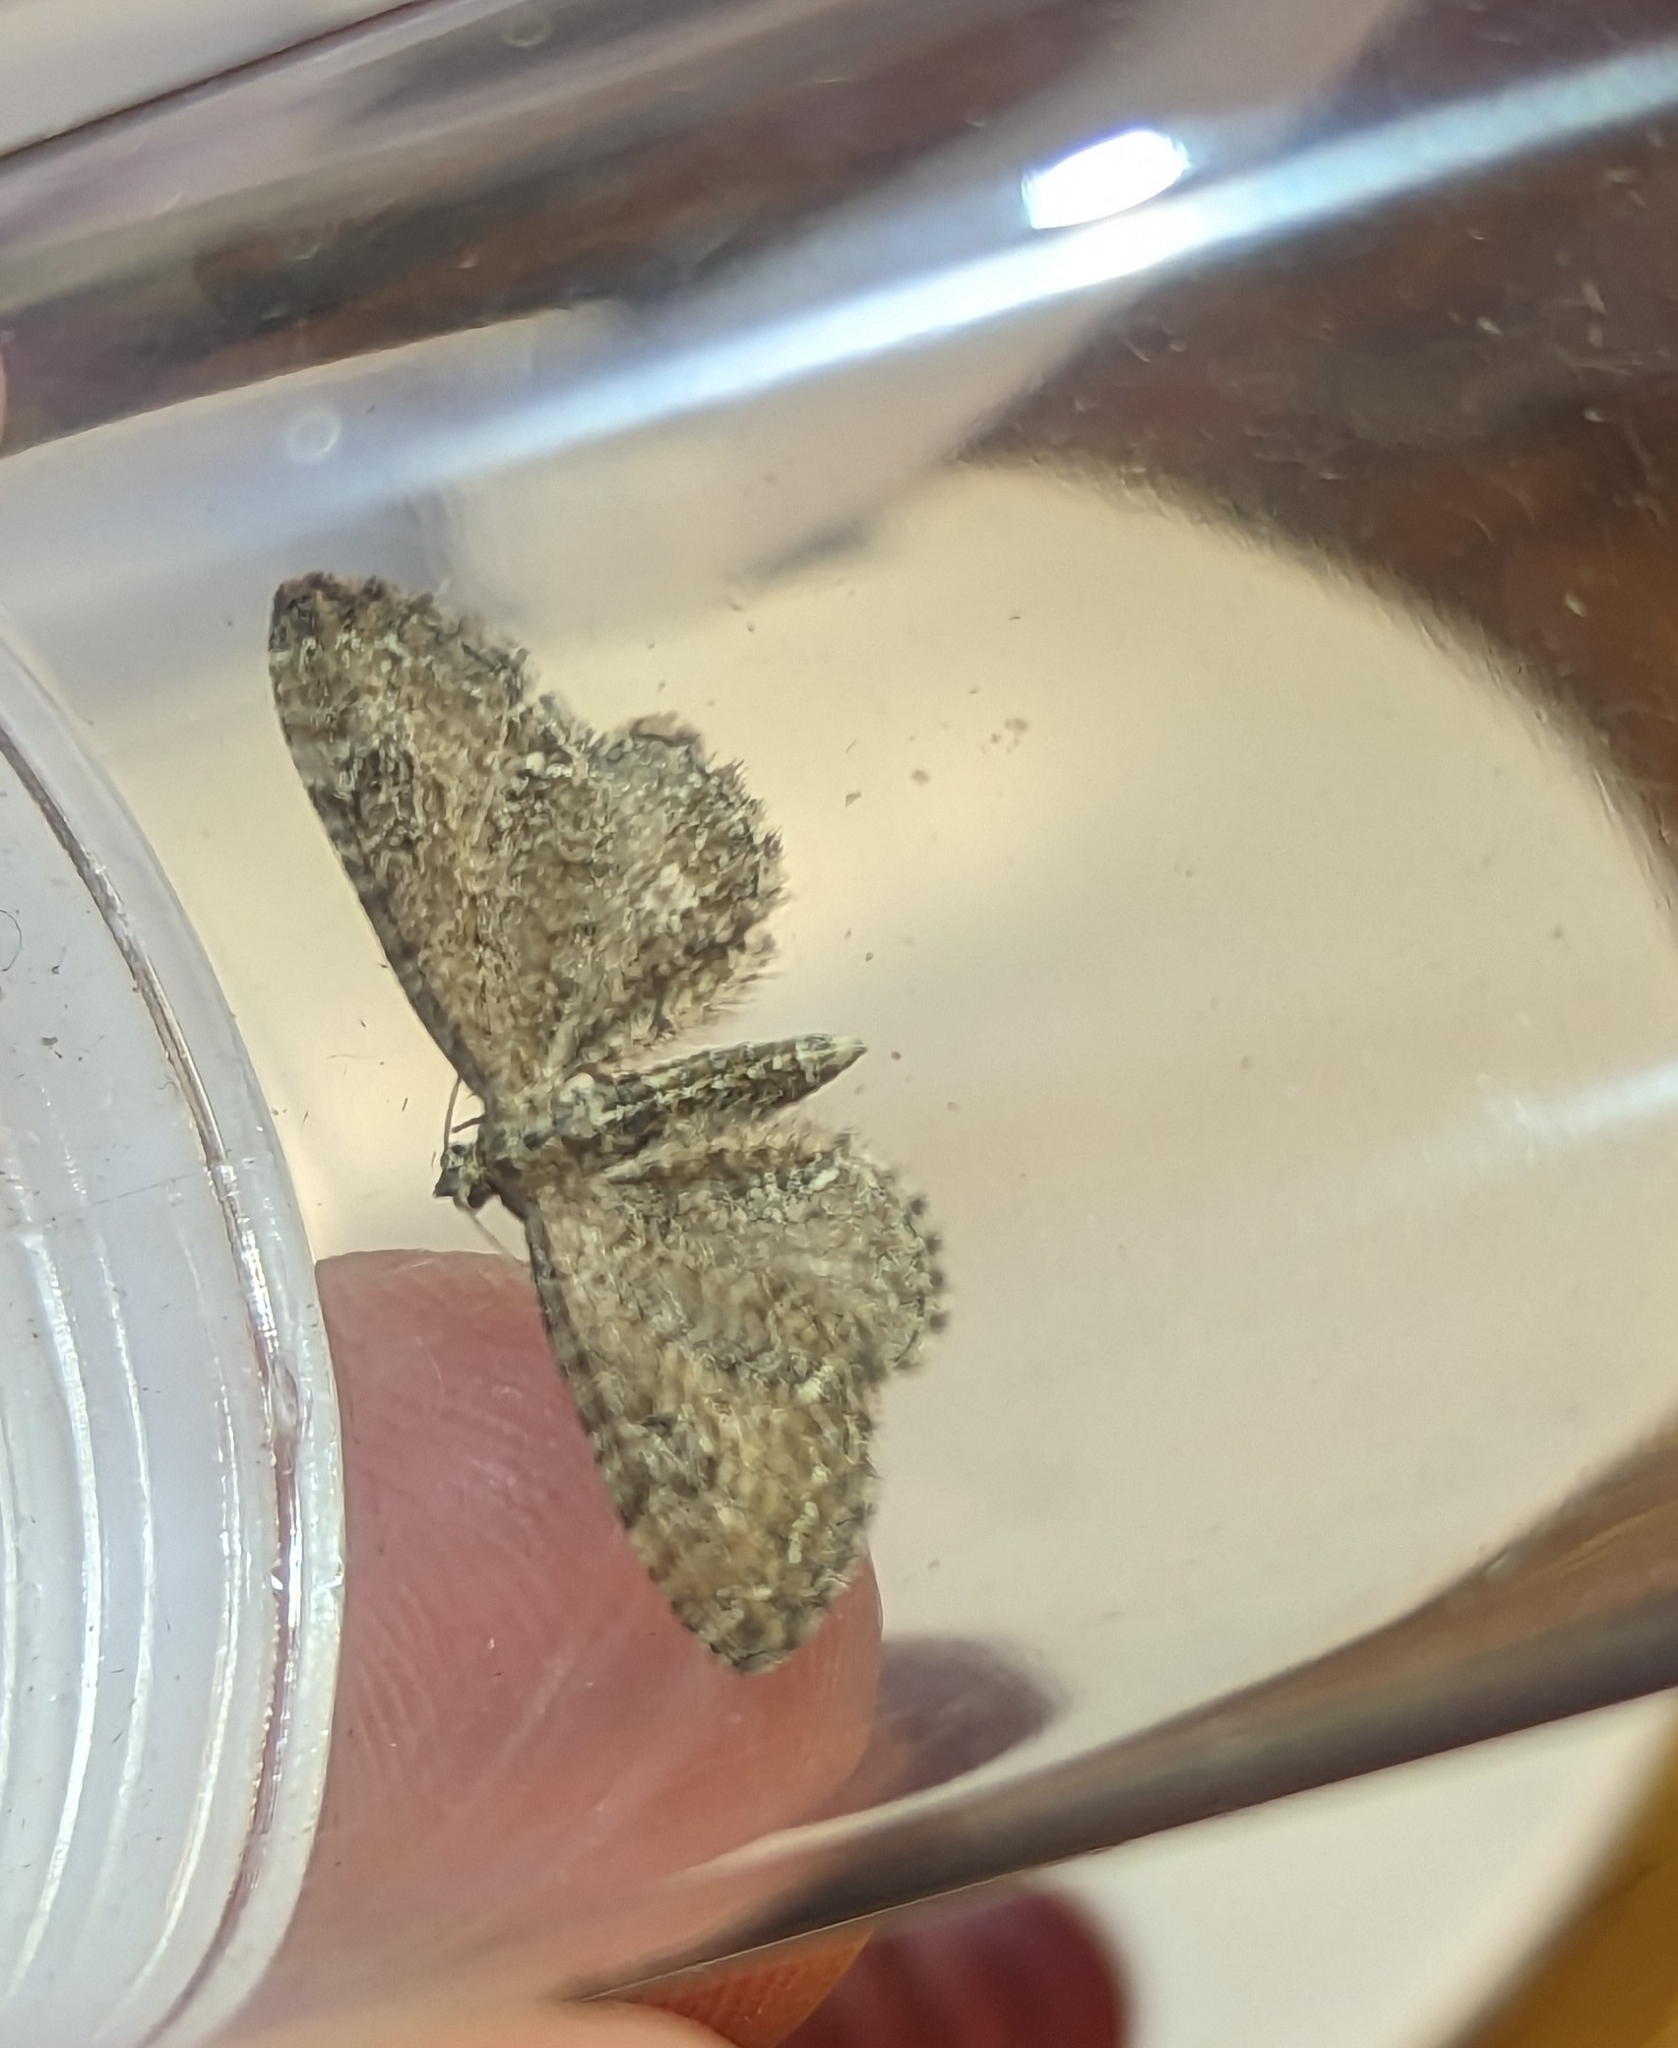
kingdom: Animalia
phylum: Arthropoda
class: Insecta
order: Lepidoptera
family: Geometridae
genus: Eupithecia
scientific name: Eupithecia vulgata
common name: Common pug
